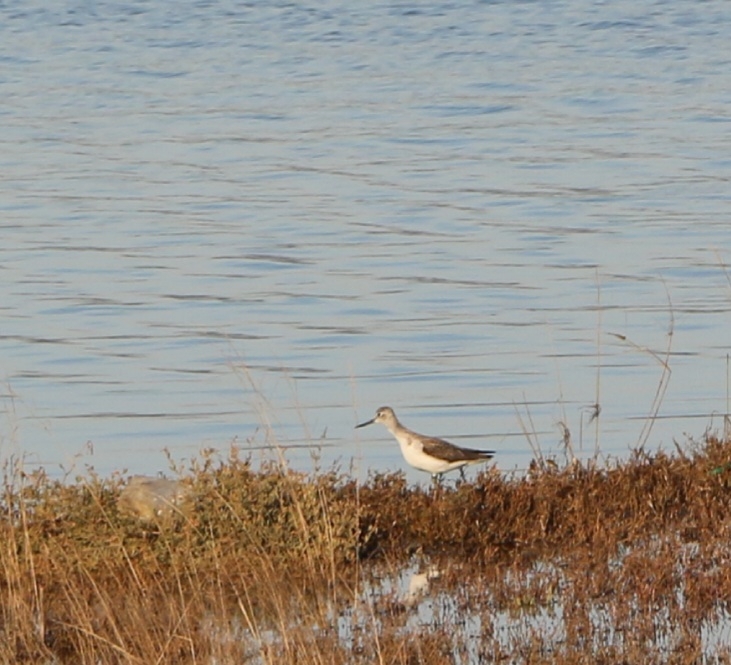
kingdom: Animalia
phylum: Chordata
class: Aves
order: Charadriiformes
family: Scolopacidae
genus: Tringa
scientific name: Tringa nebularia
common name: Common greenshank
